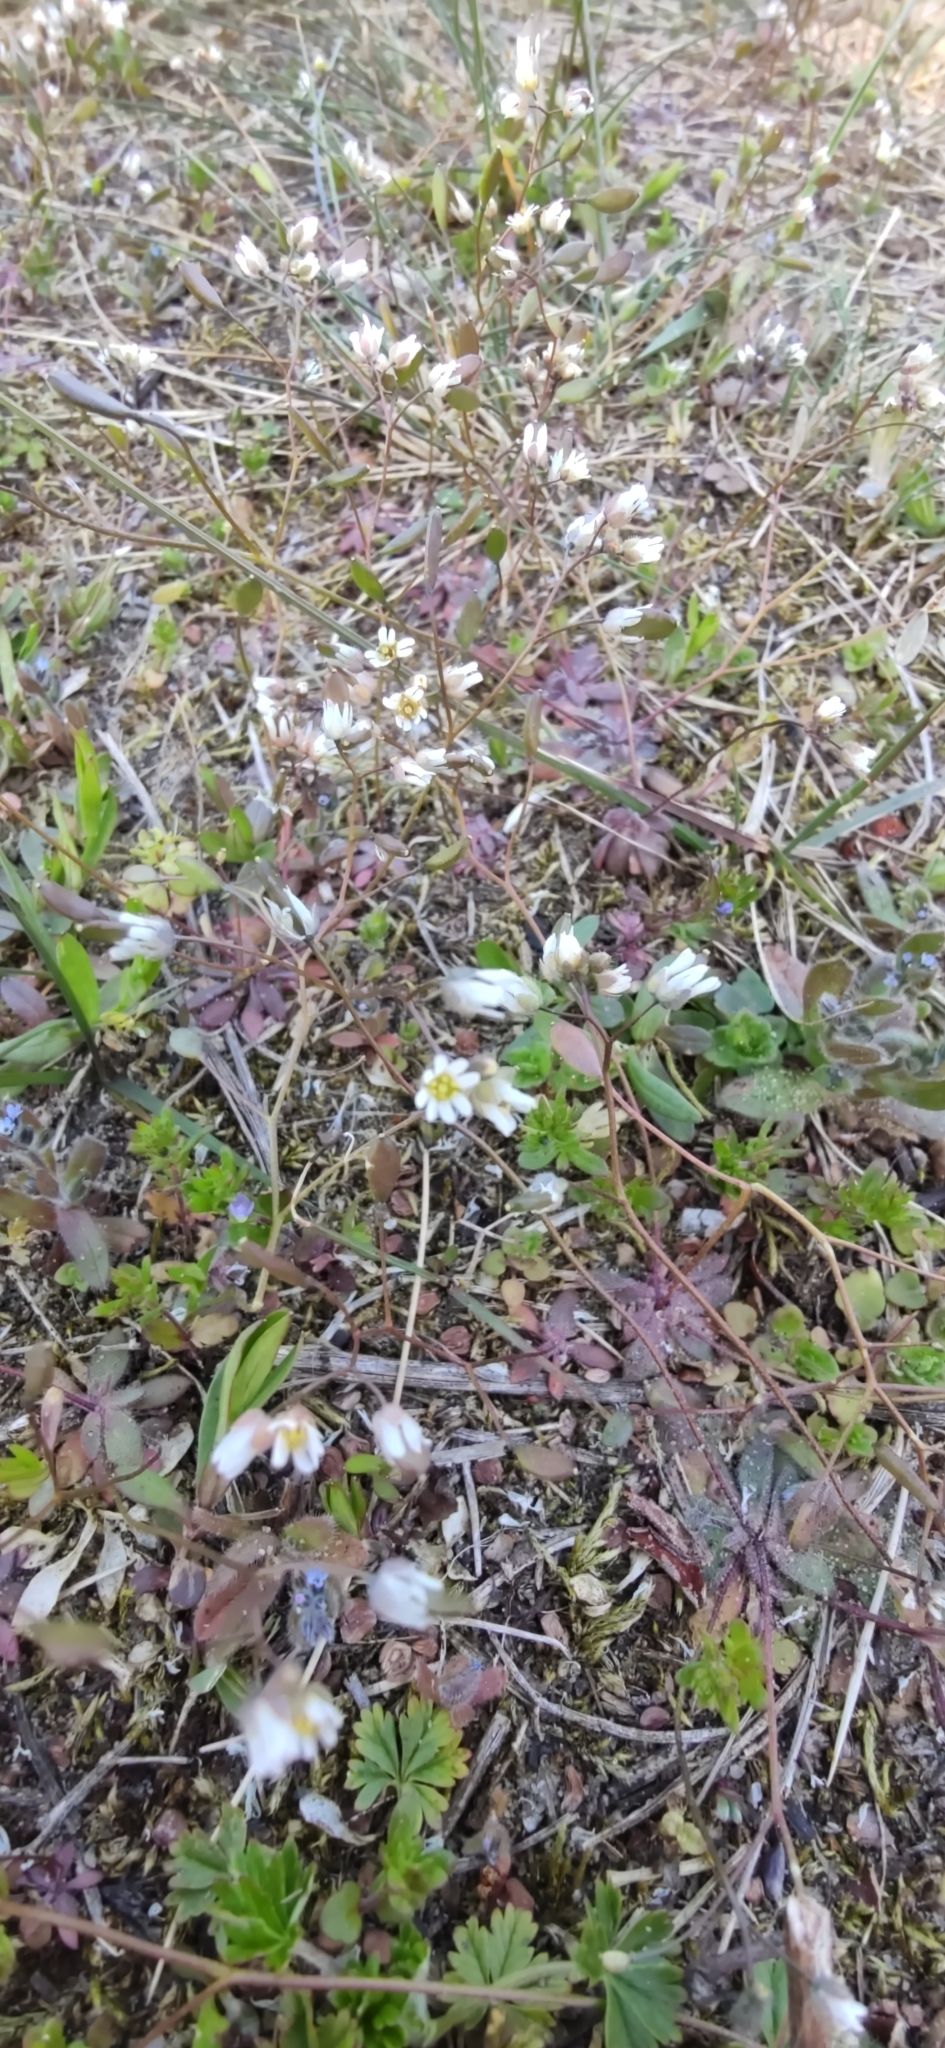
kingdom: Plantae
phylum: Tracheophyta
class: Magnoliopsida
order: Brassicales
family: Brassicaceae
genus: Draba
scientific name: Draba verna
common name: Spring draba
